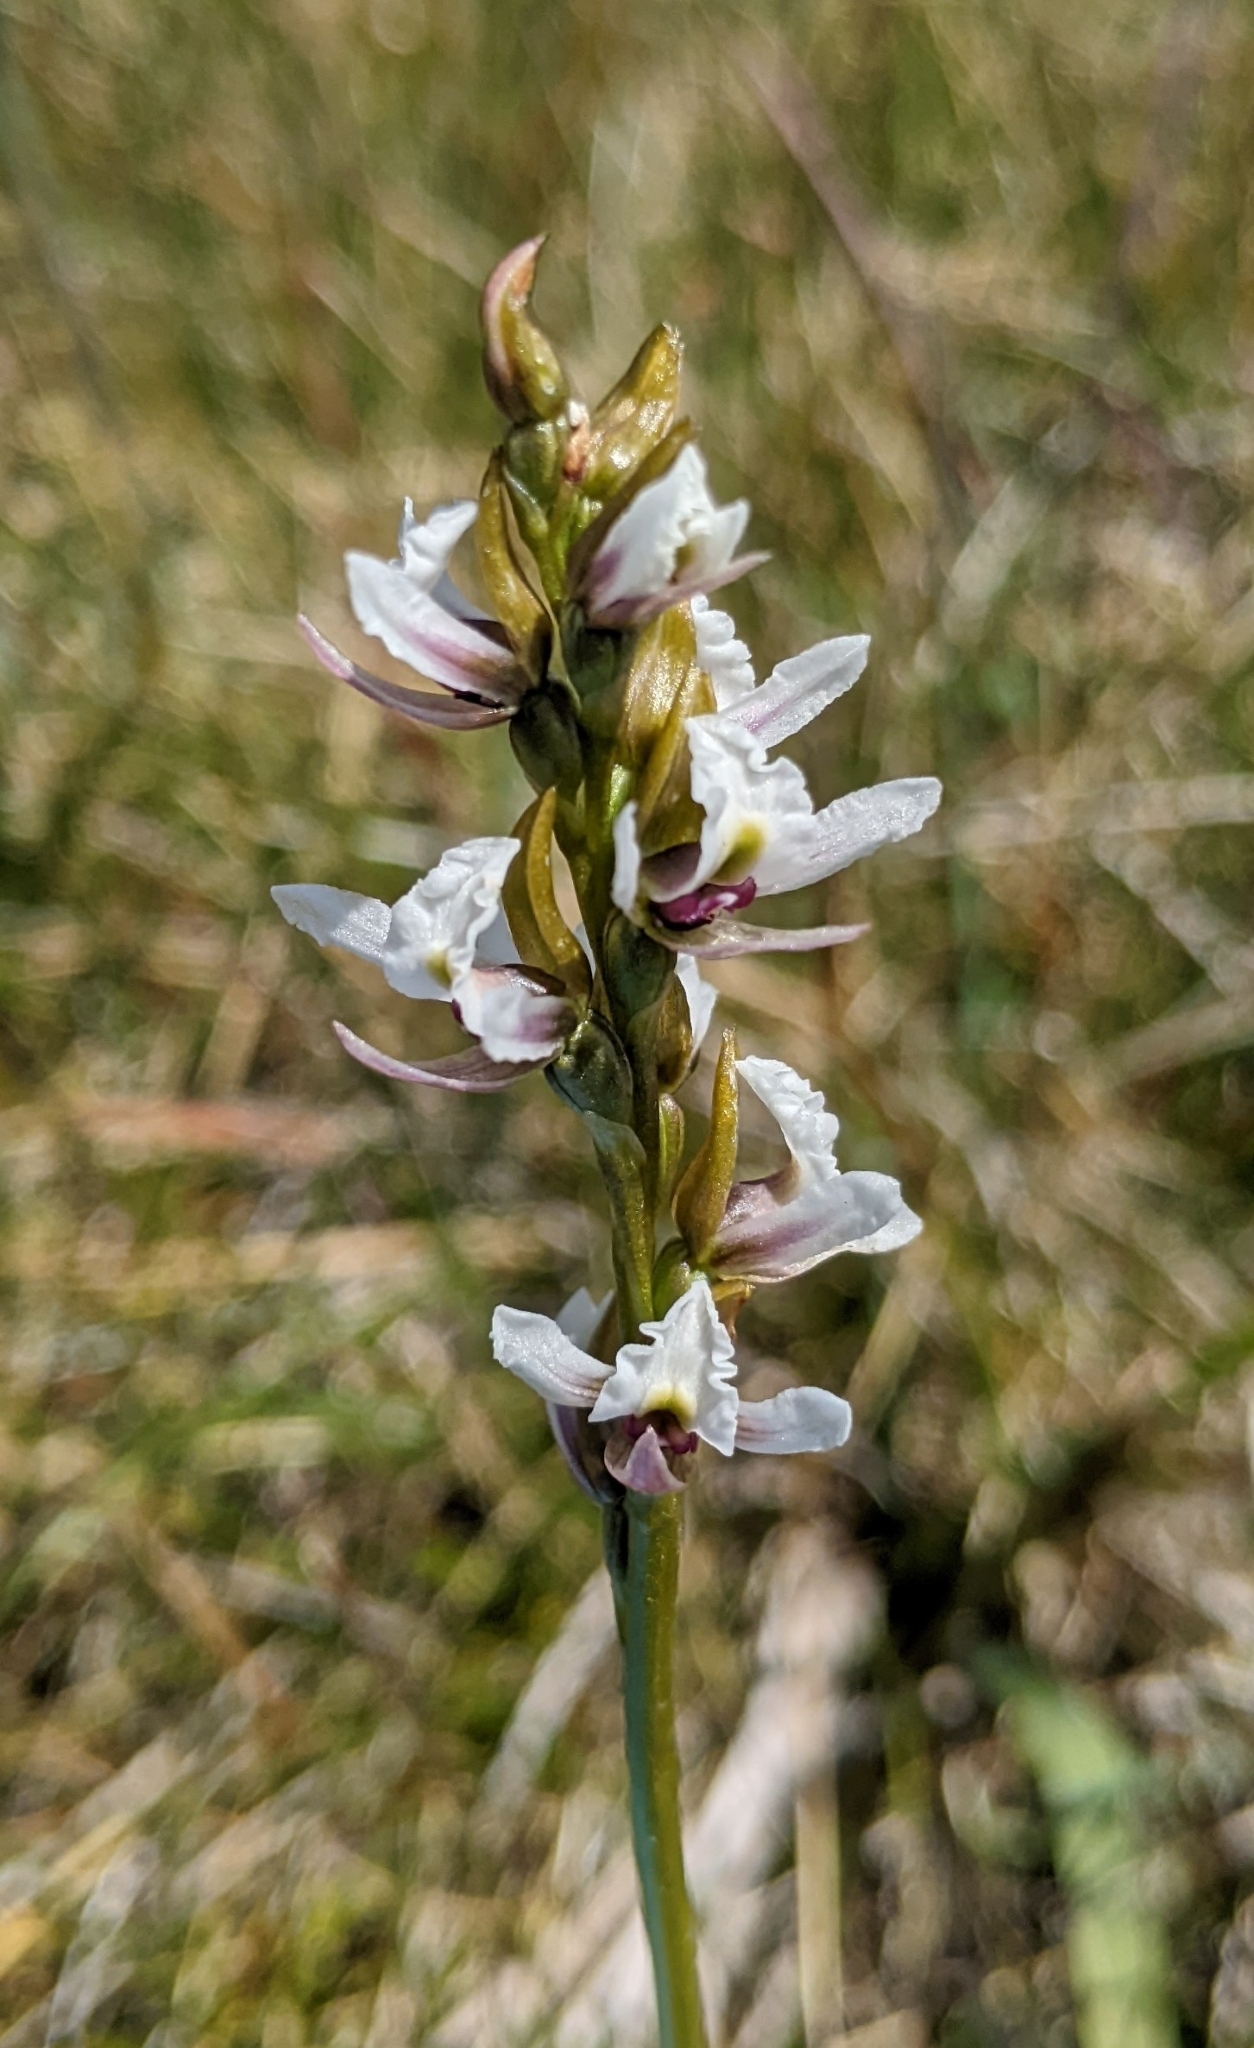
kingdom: Plantae
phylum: Tracheophyta
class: Liliopsida
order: Asparagales
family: Orchidaceae
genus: Prasophyllum
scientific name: Prasophyllum suttonii
